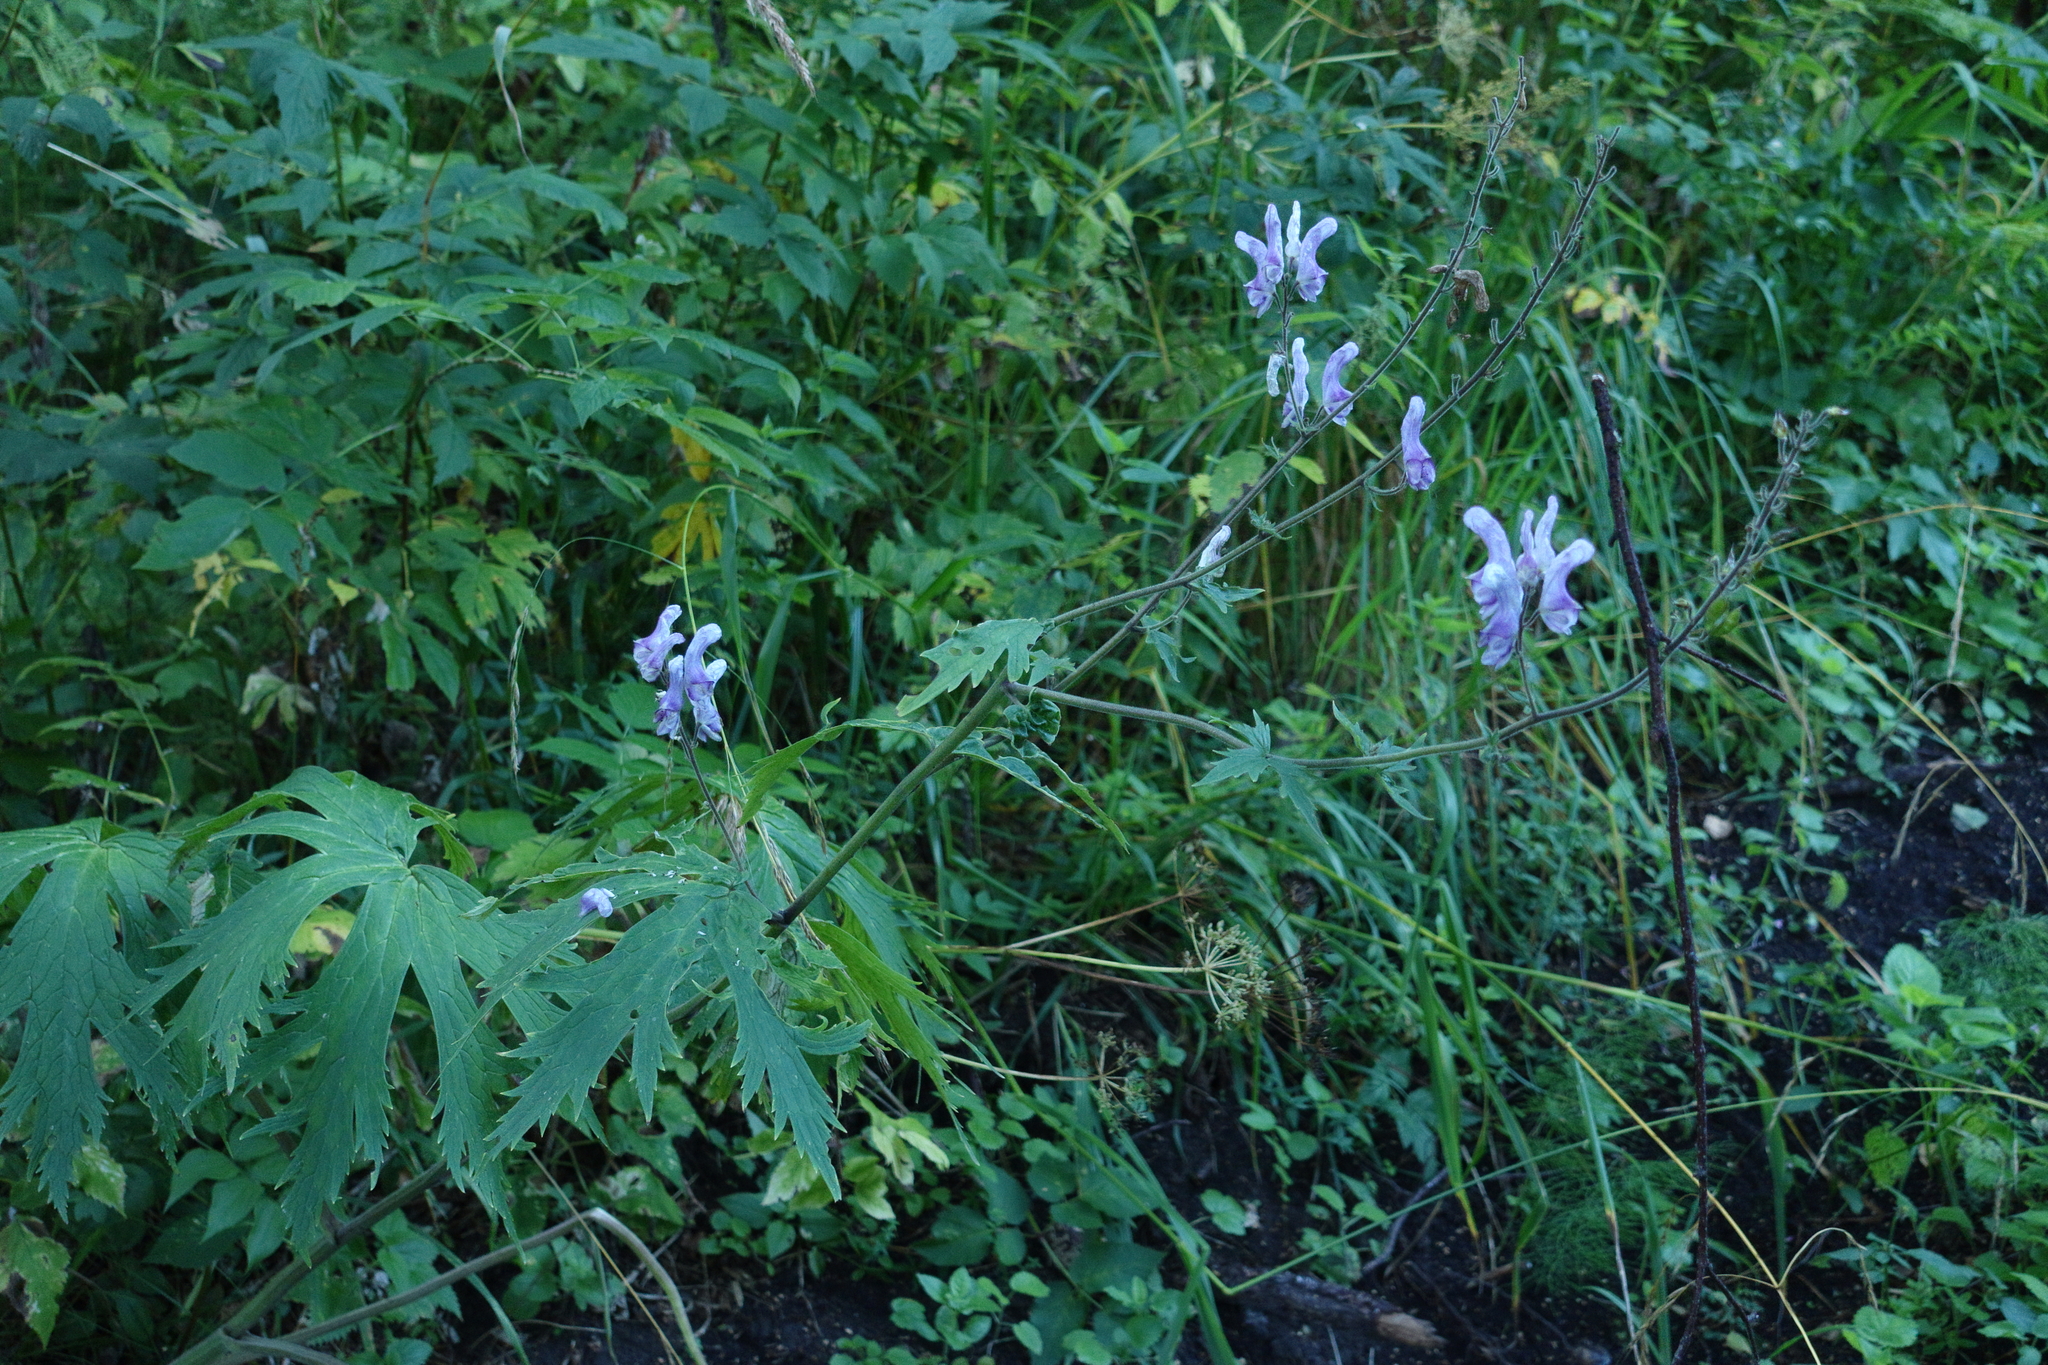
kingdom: Plantae
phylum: Tracheophyta
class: Magnoliopsida
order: Ranunculales
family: Ranunculaceae
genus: Aconitum
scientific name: Aconitum septentrionale
